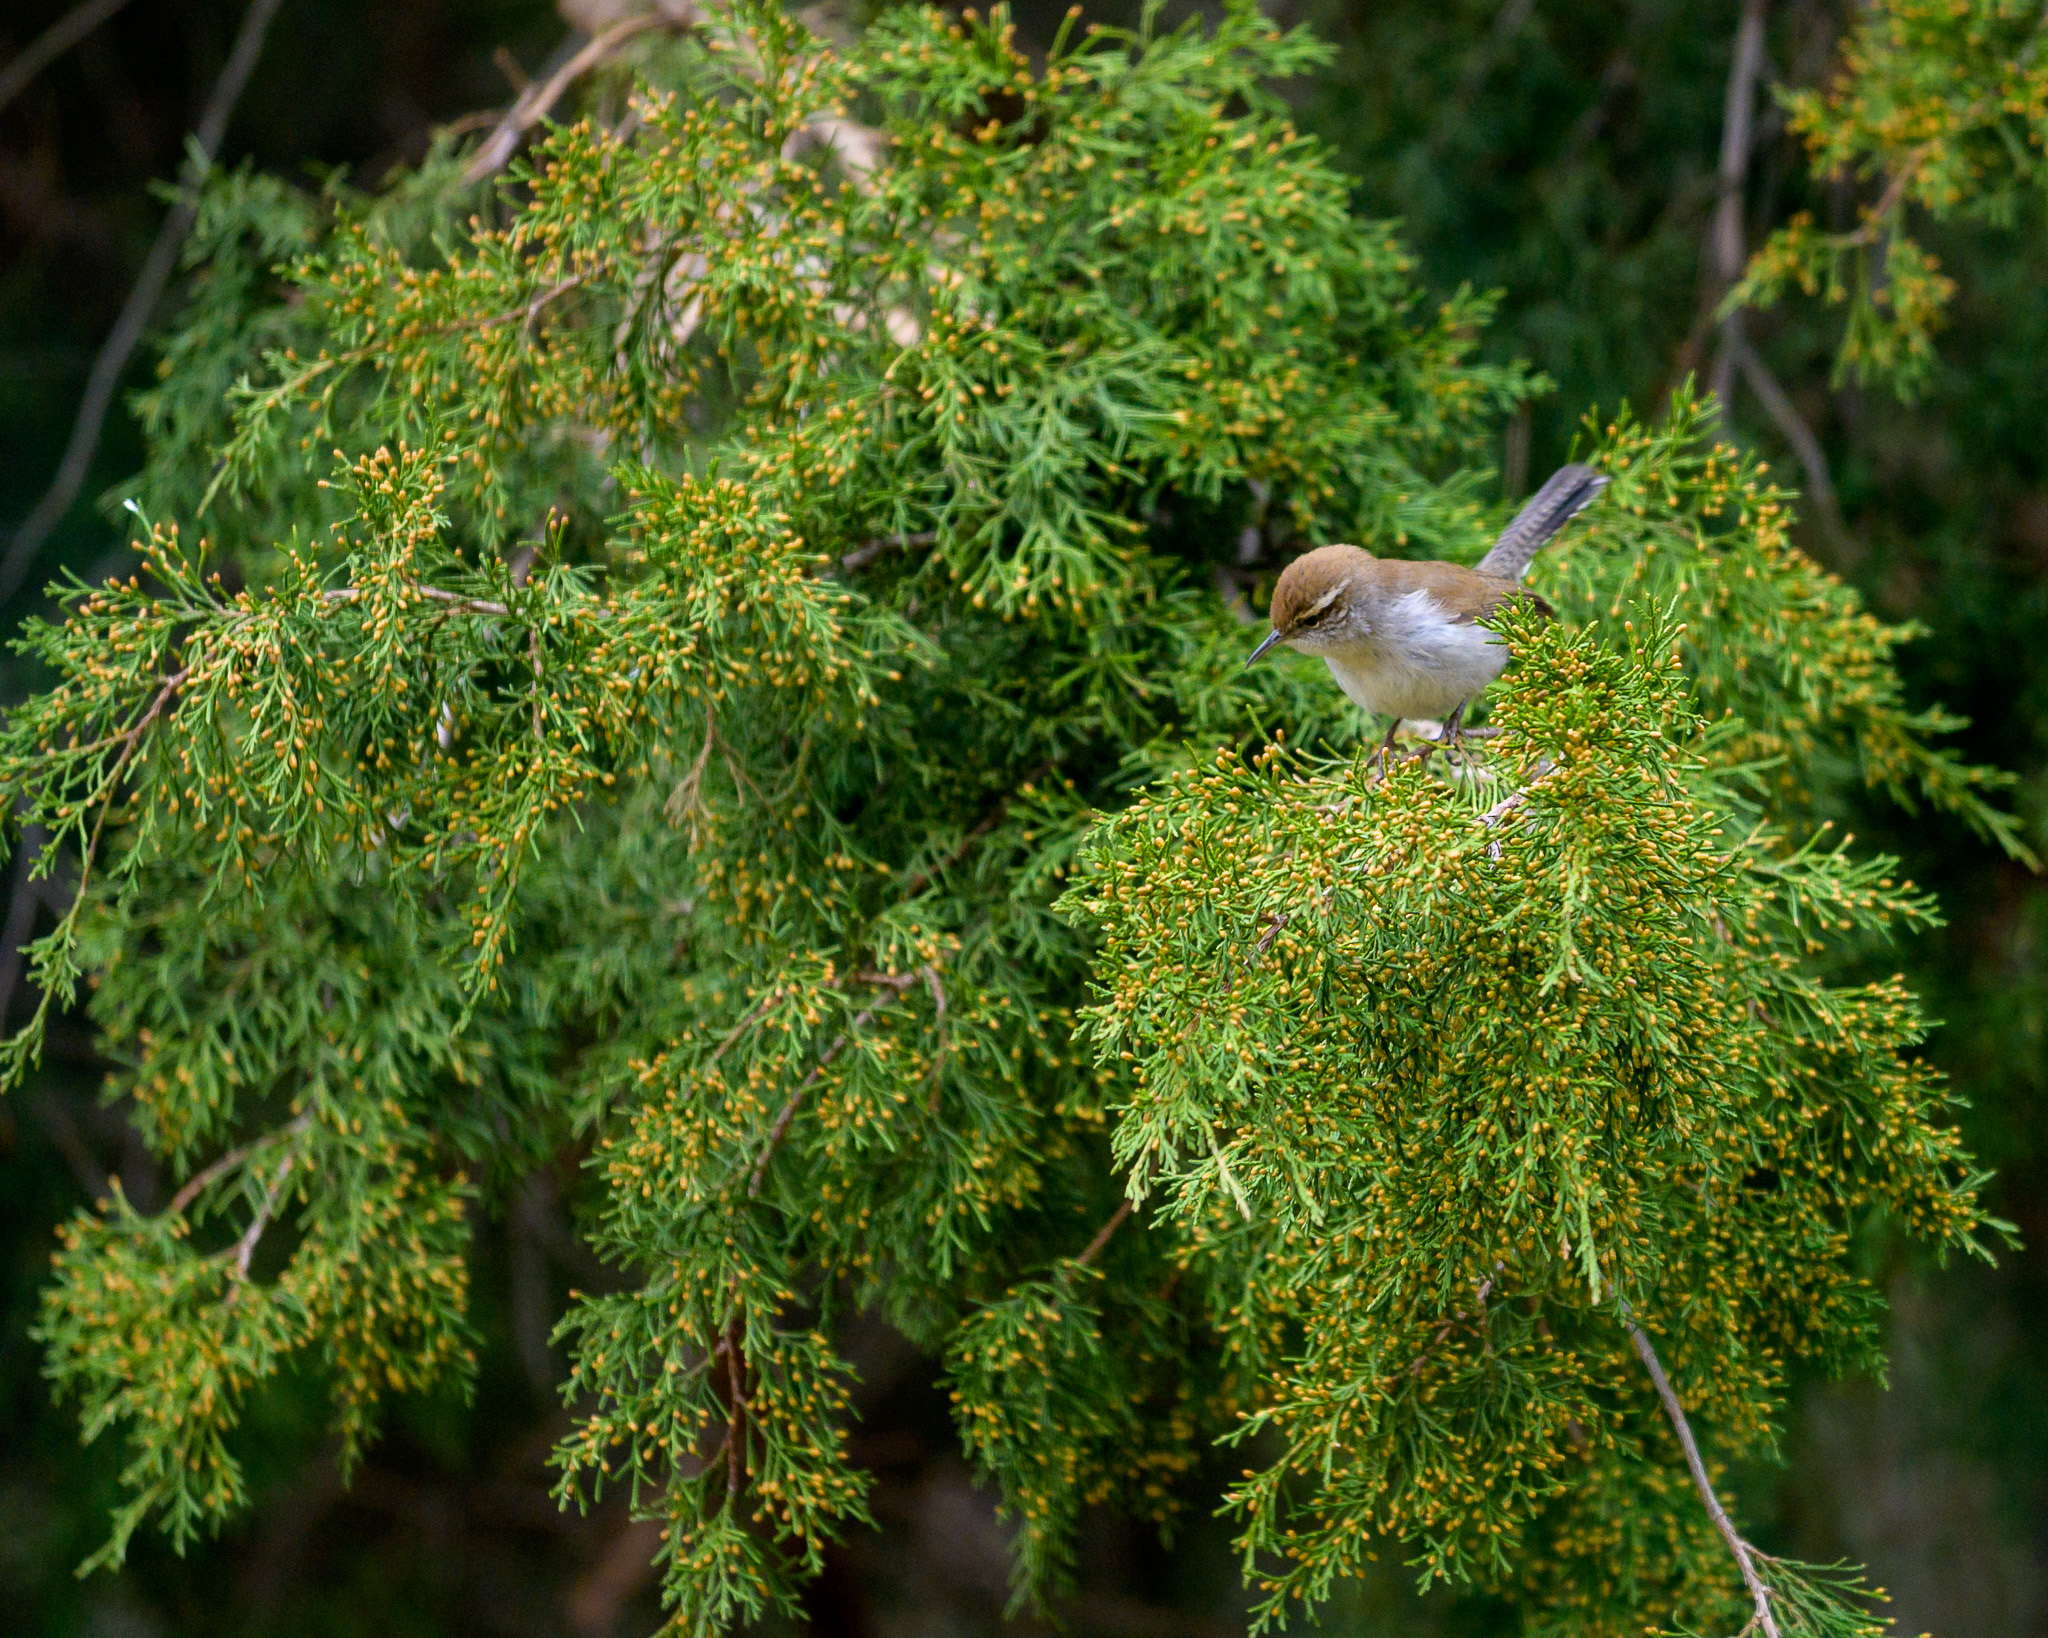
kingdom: Animalia
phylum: Chordata
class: Aves
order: Passeriformes
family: Troglodytidae
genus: Thryomanes
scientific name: Thryomanes bewickii
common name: Bewick's wren
